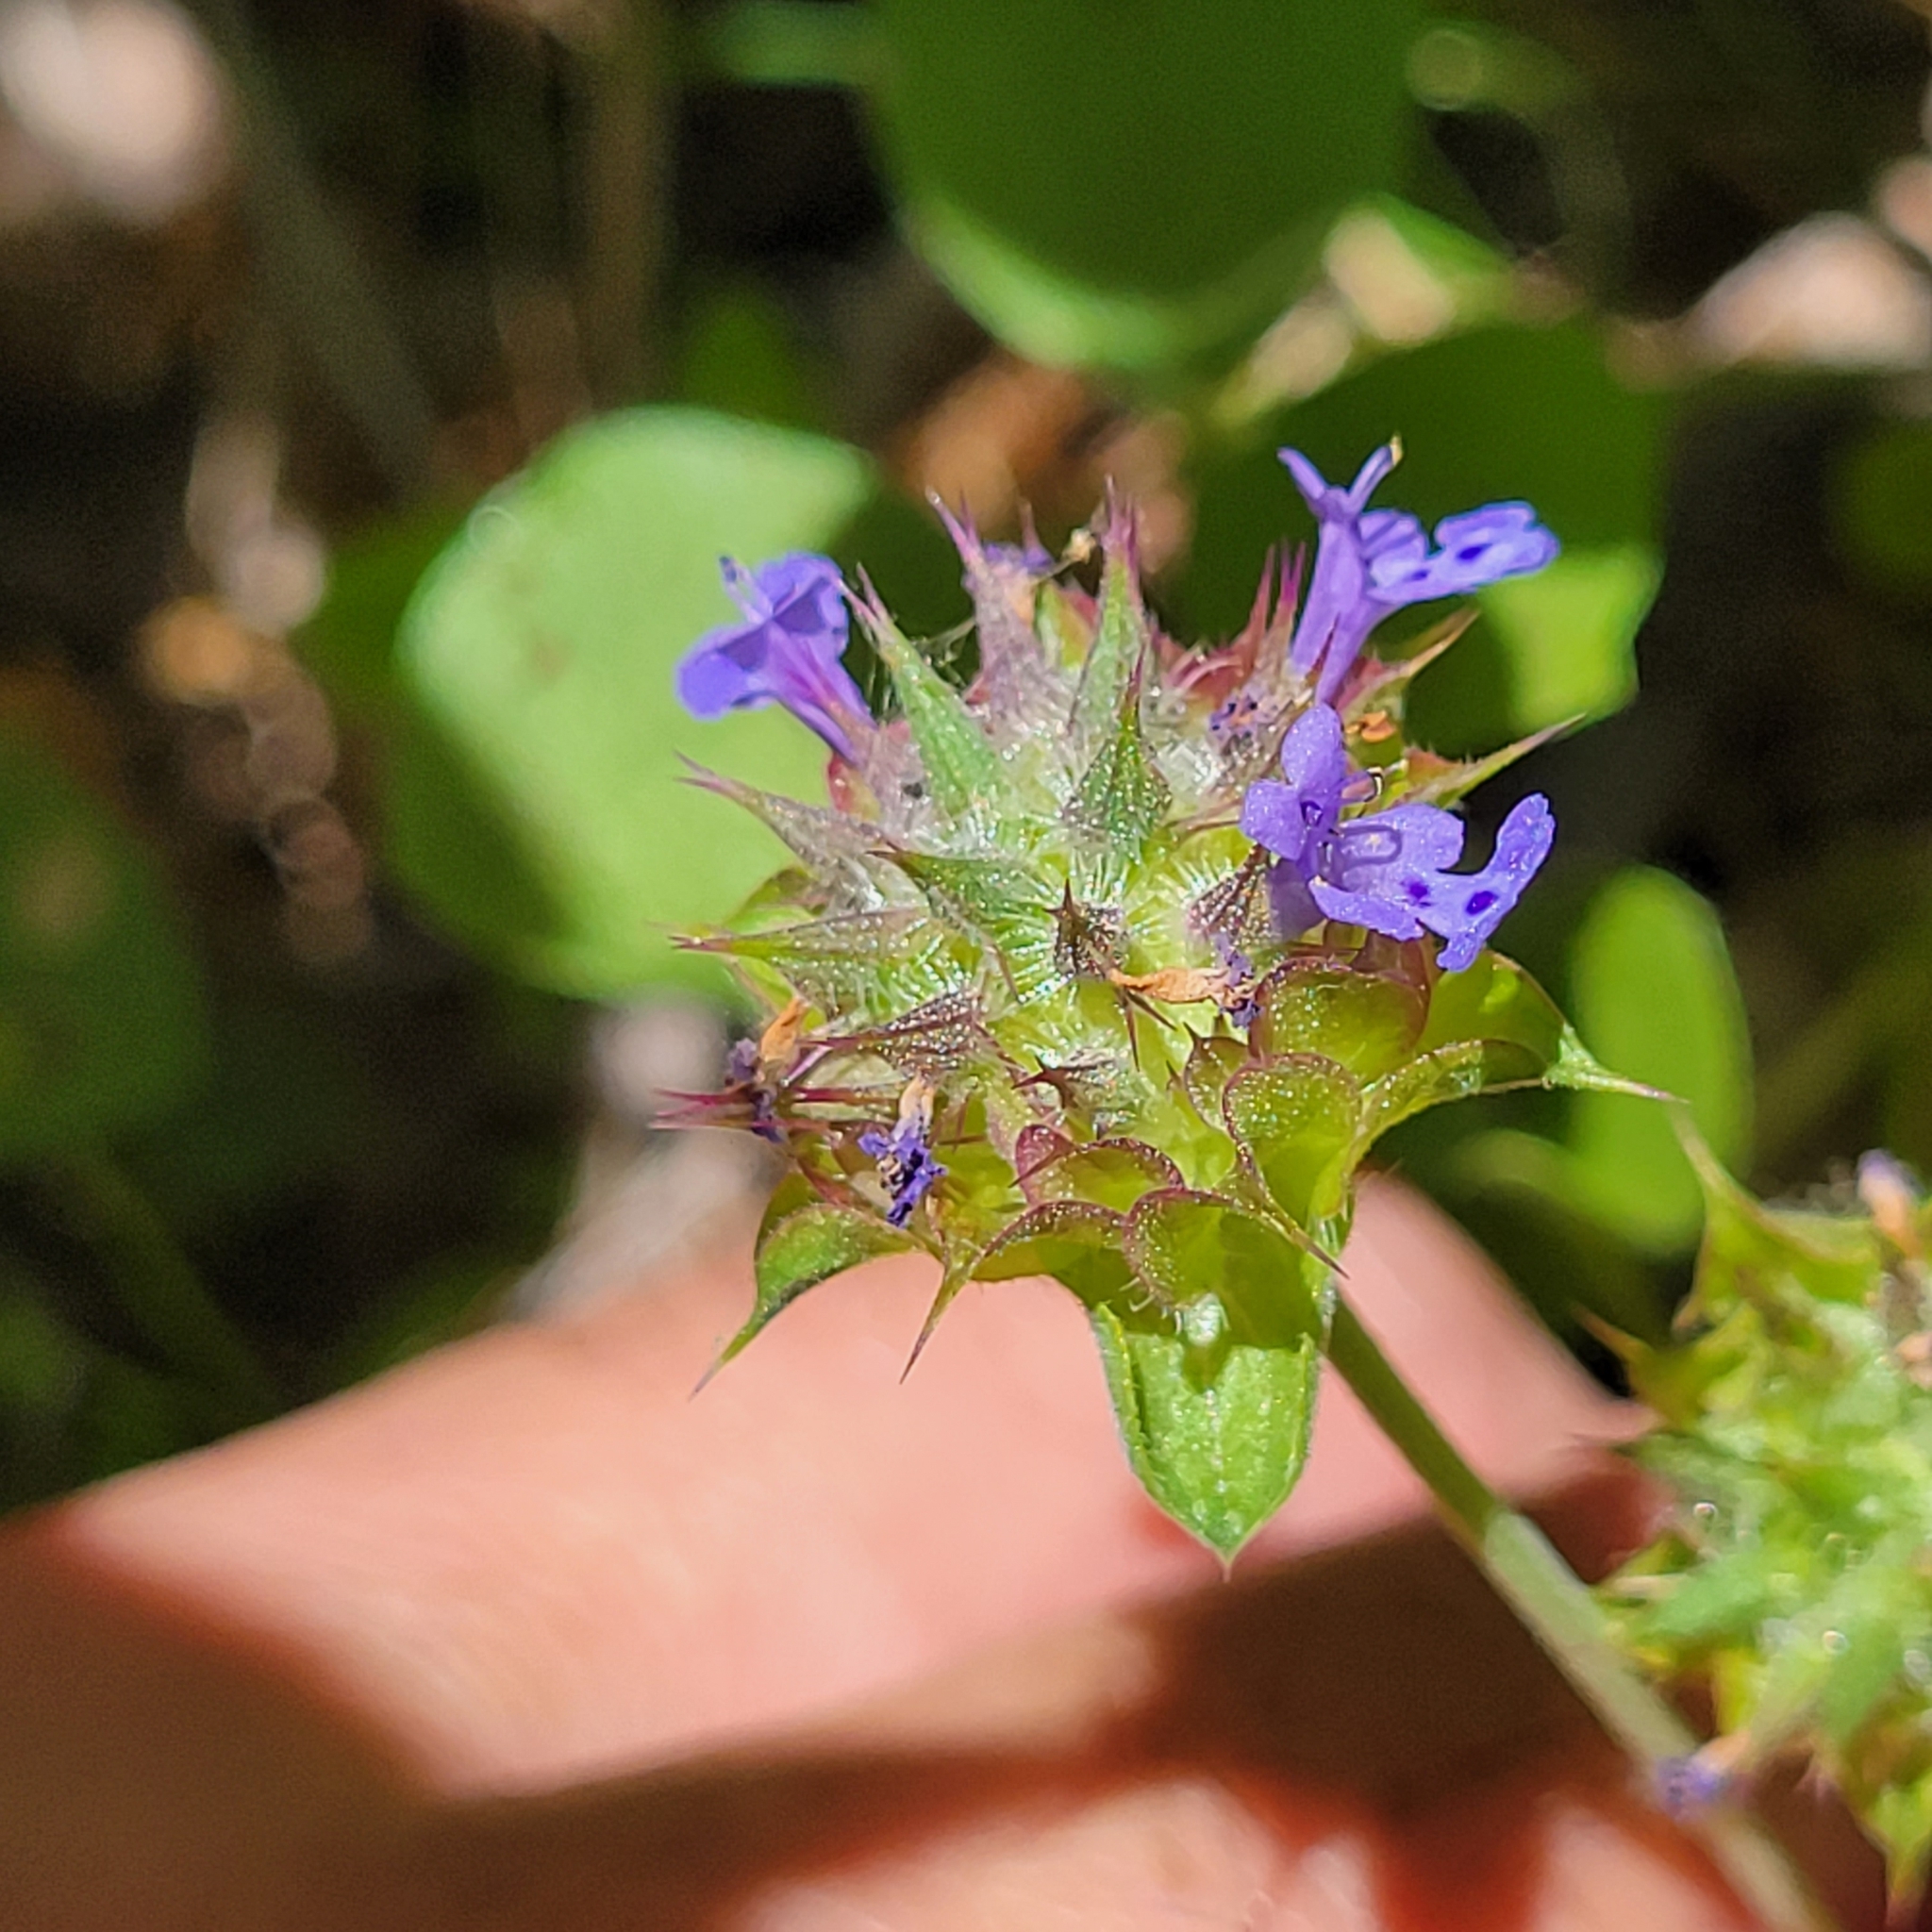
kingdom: Plantae
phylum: Tracheophyta
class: Magnoliopsida
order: Lamiales
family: Lamiaceae
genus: Salvia
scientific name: Salvia columbariae
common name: Chia
